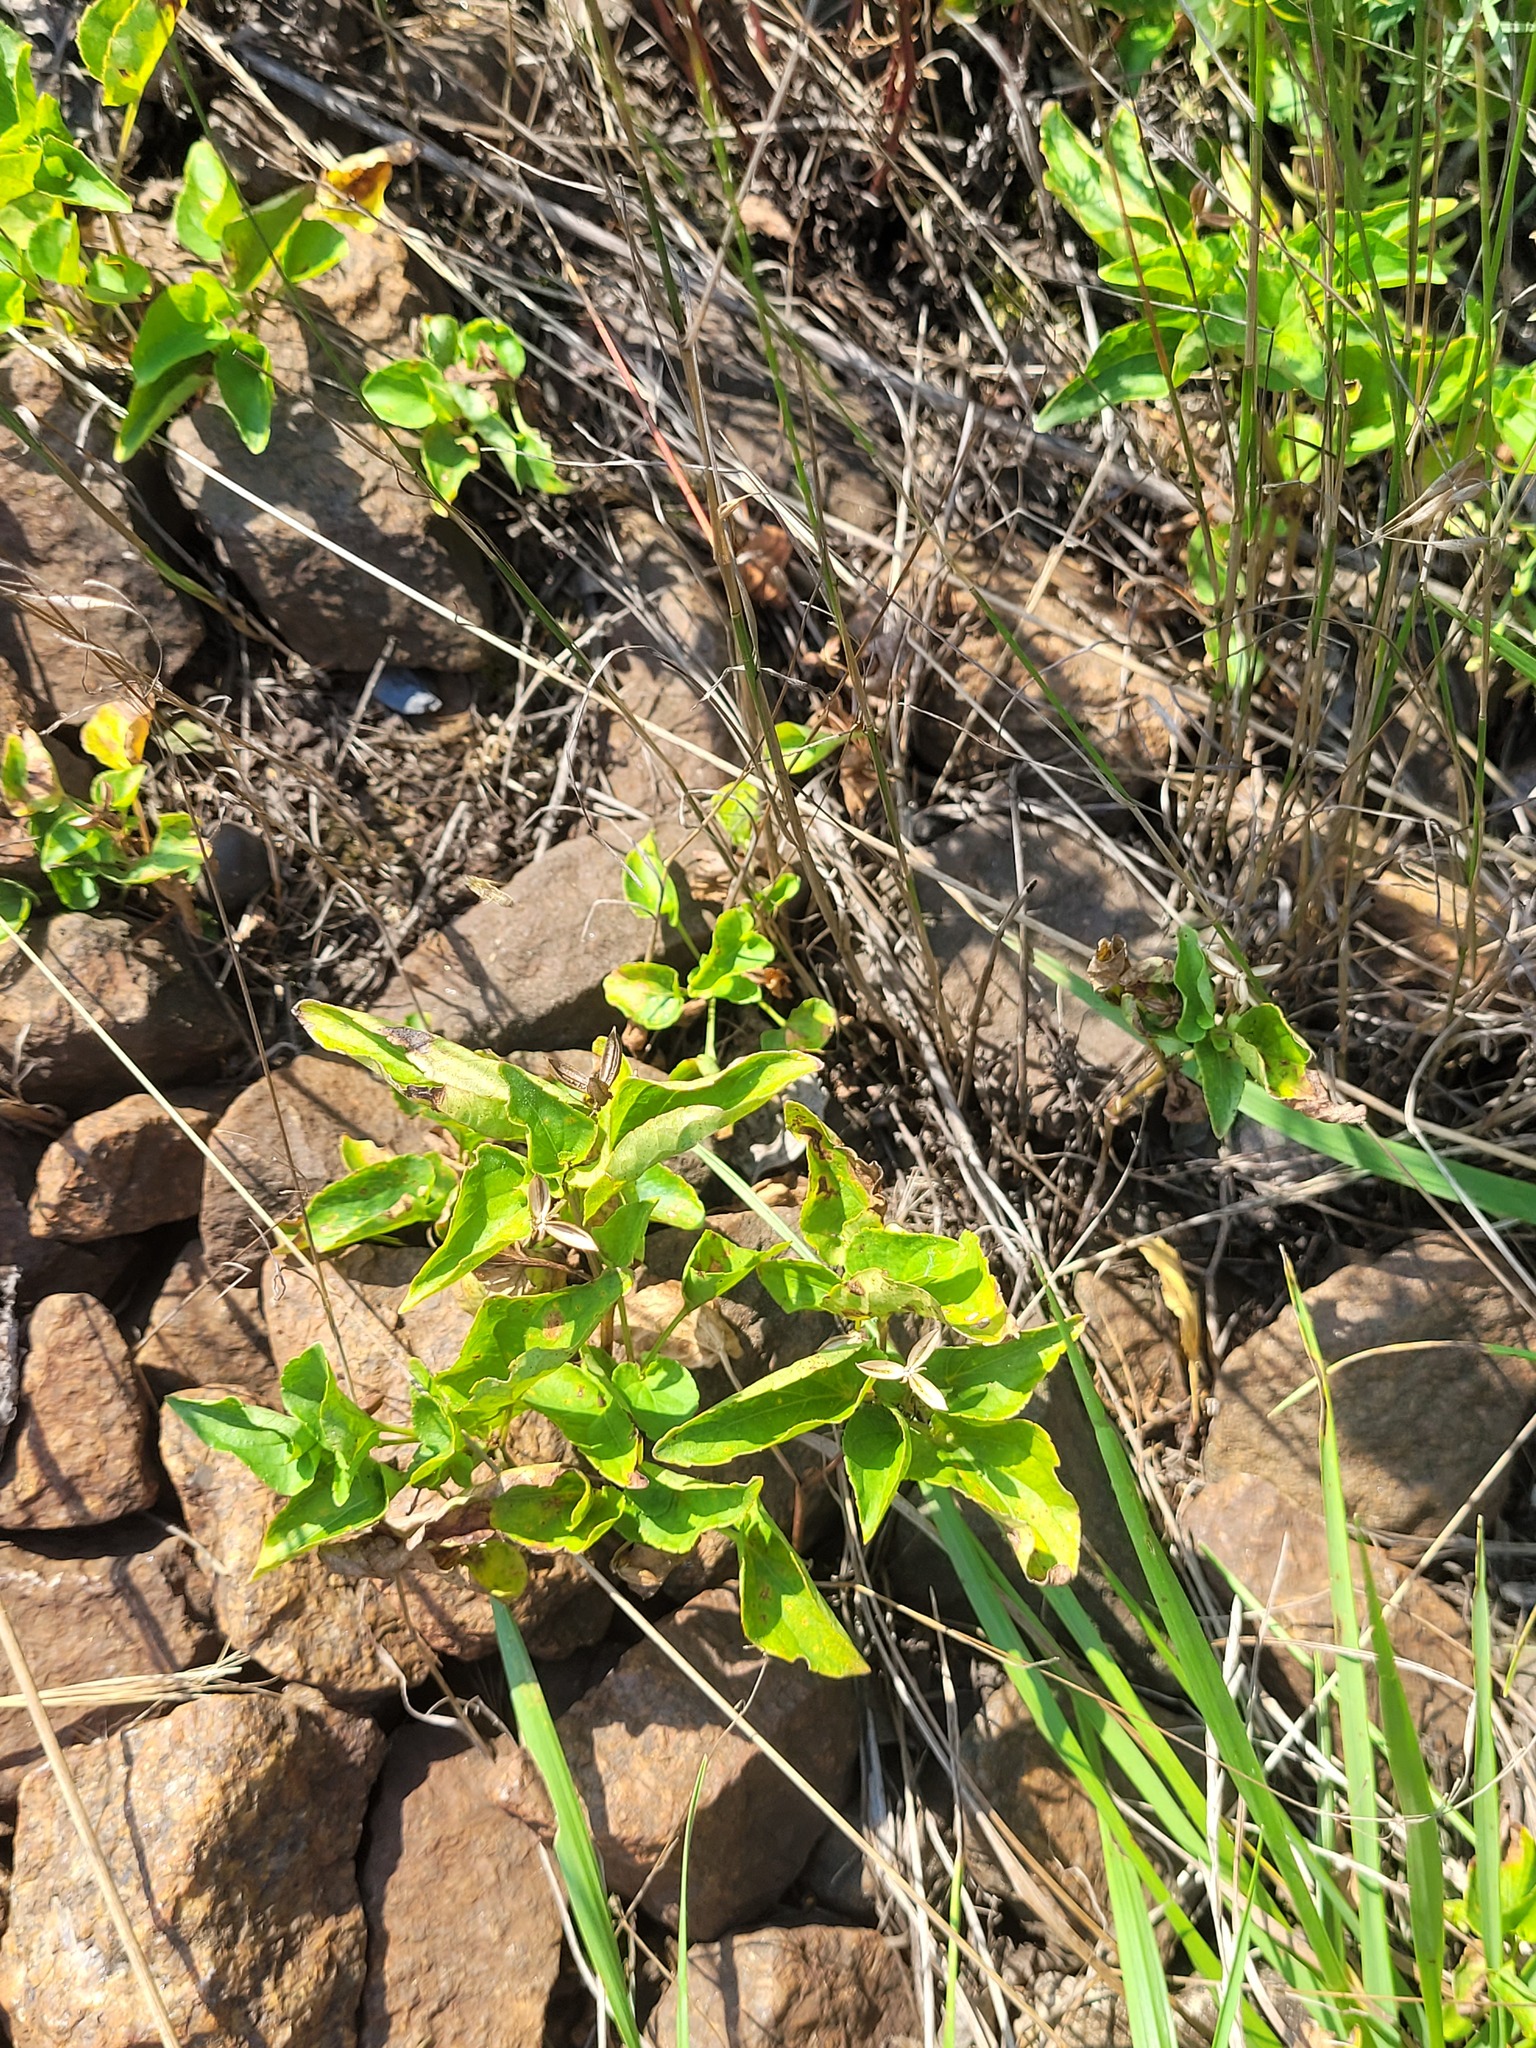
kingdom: Plantae
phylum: Tracheophyta
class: Magnoliopsida
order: Malpighiales
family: Violaceae
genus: Viola
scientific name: Viola canina
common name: Heath dog-violet
